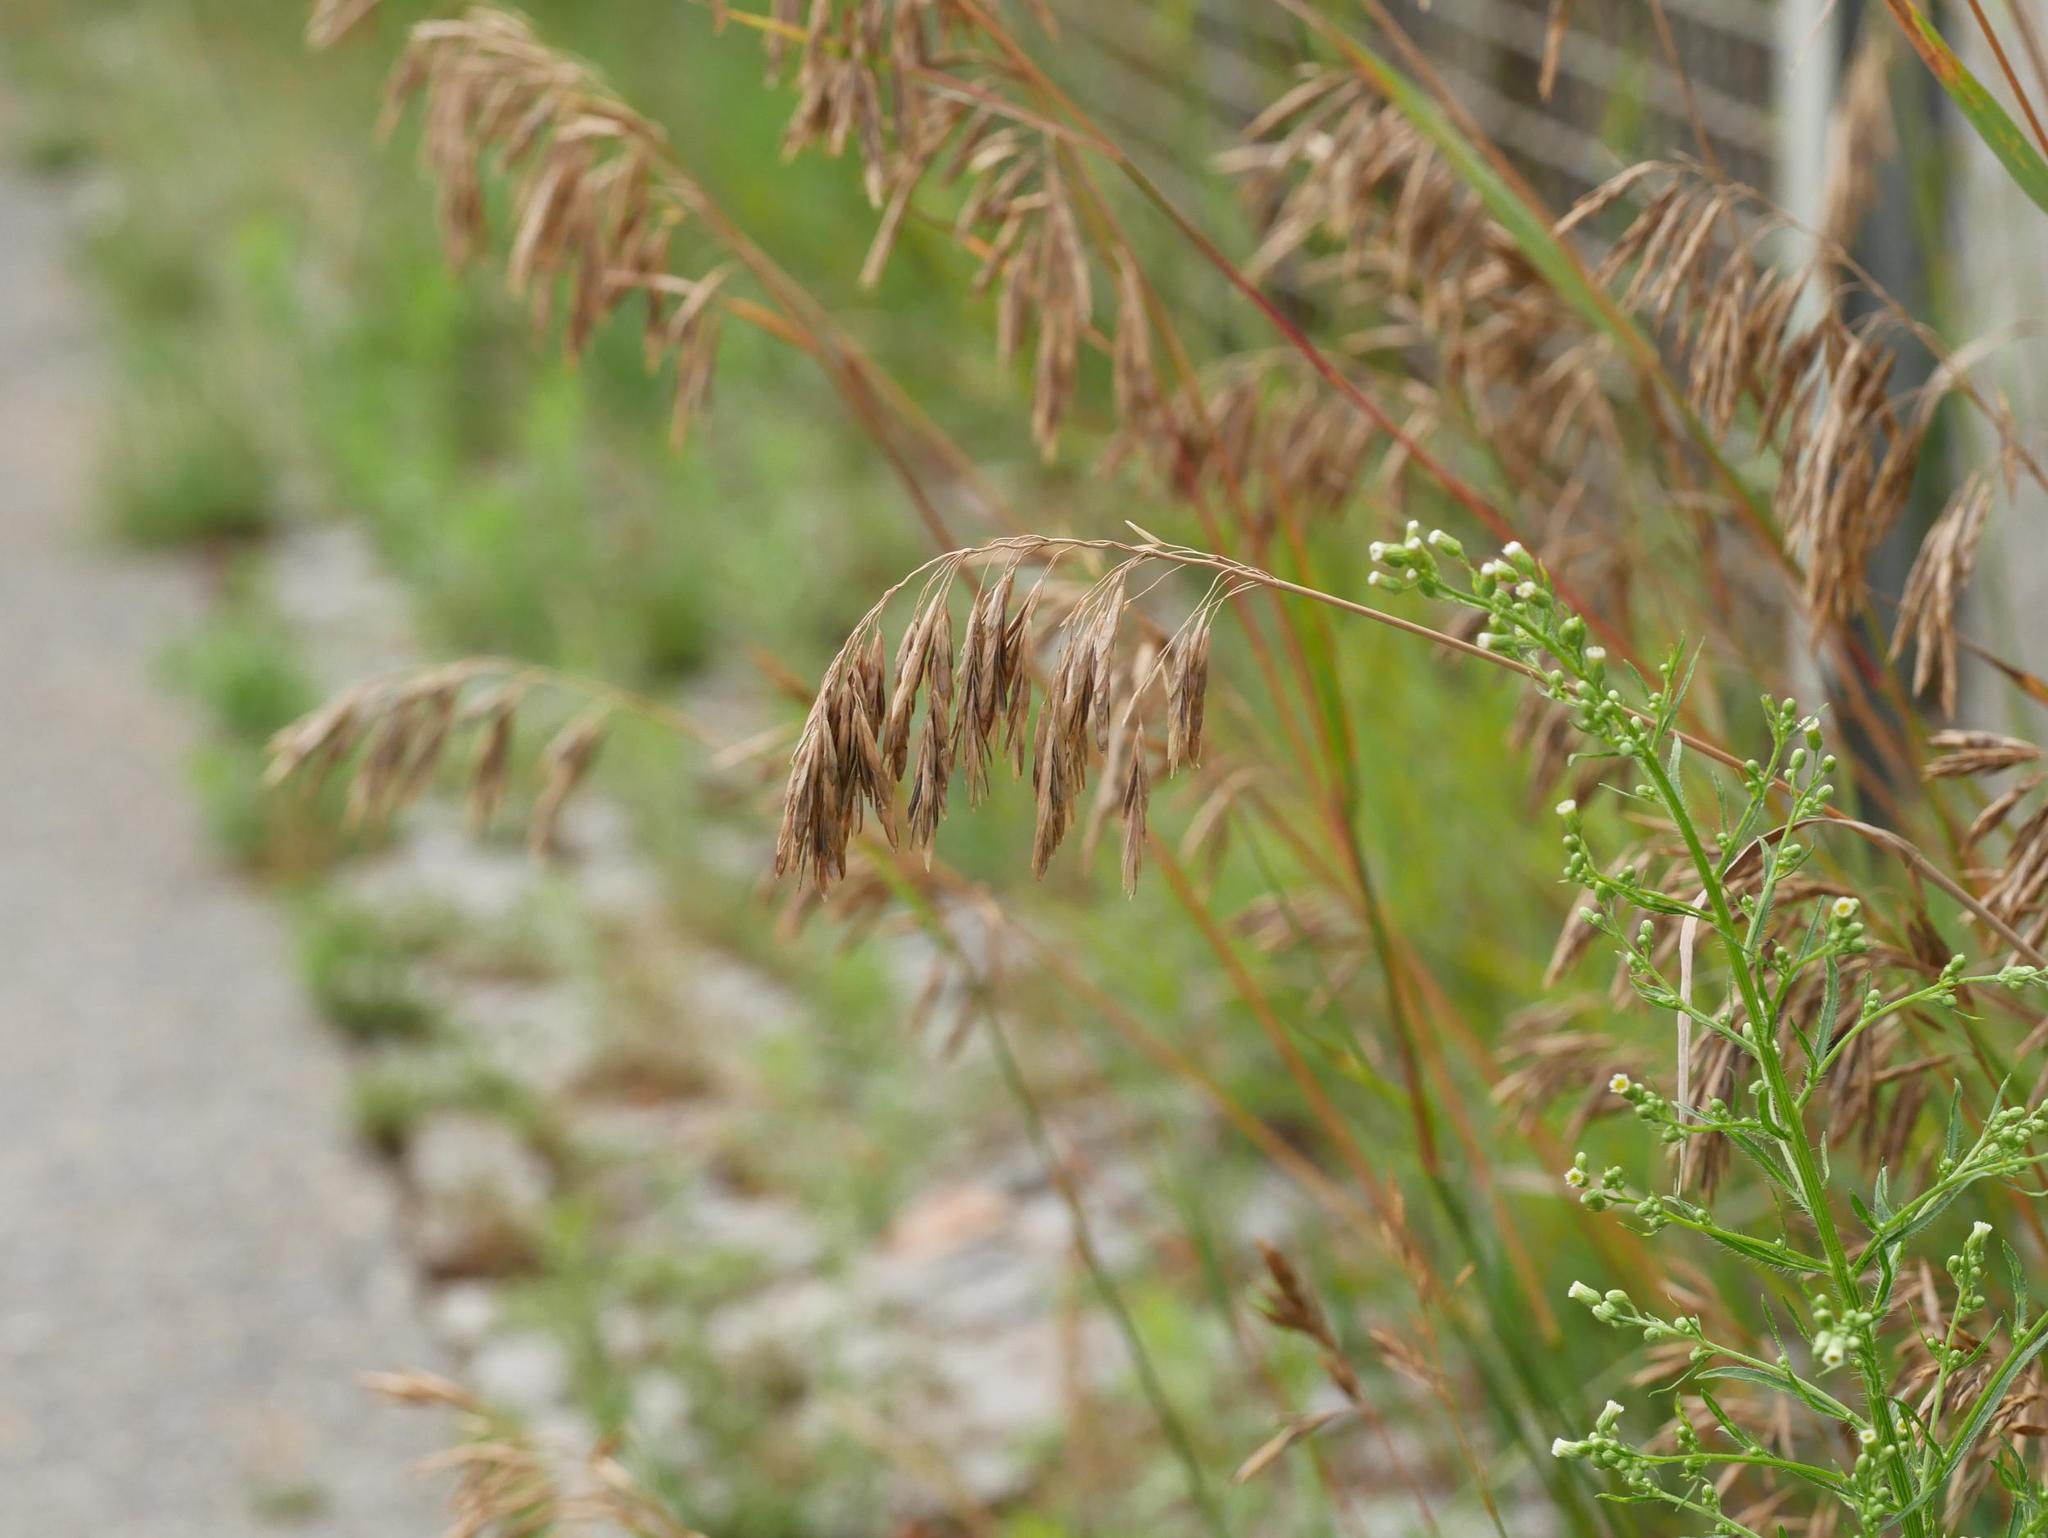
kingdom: Plantae
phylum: Tracheophyta
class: Liliopsida
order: Poales
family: Poaceae
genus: Bromus
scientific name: Bromus inermis
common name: Smooth brome
